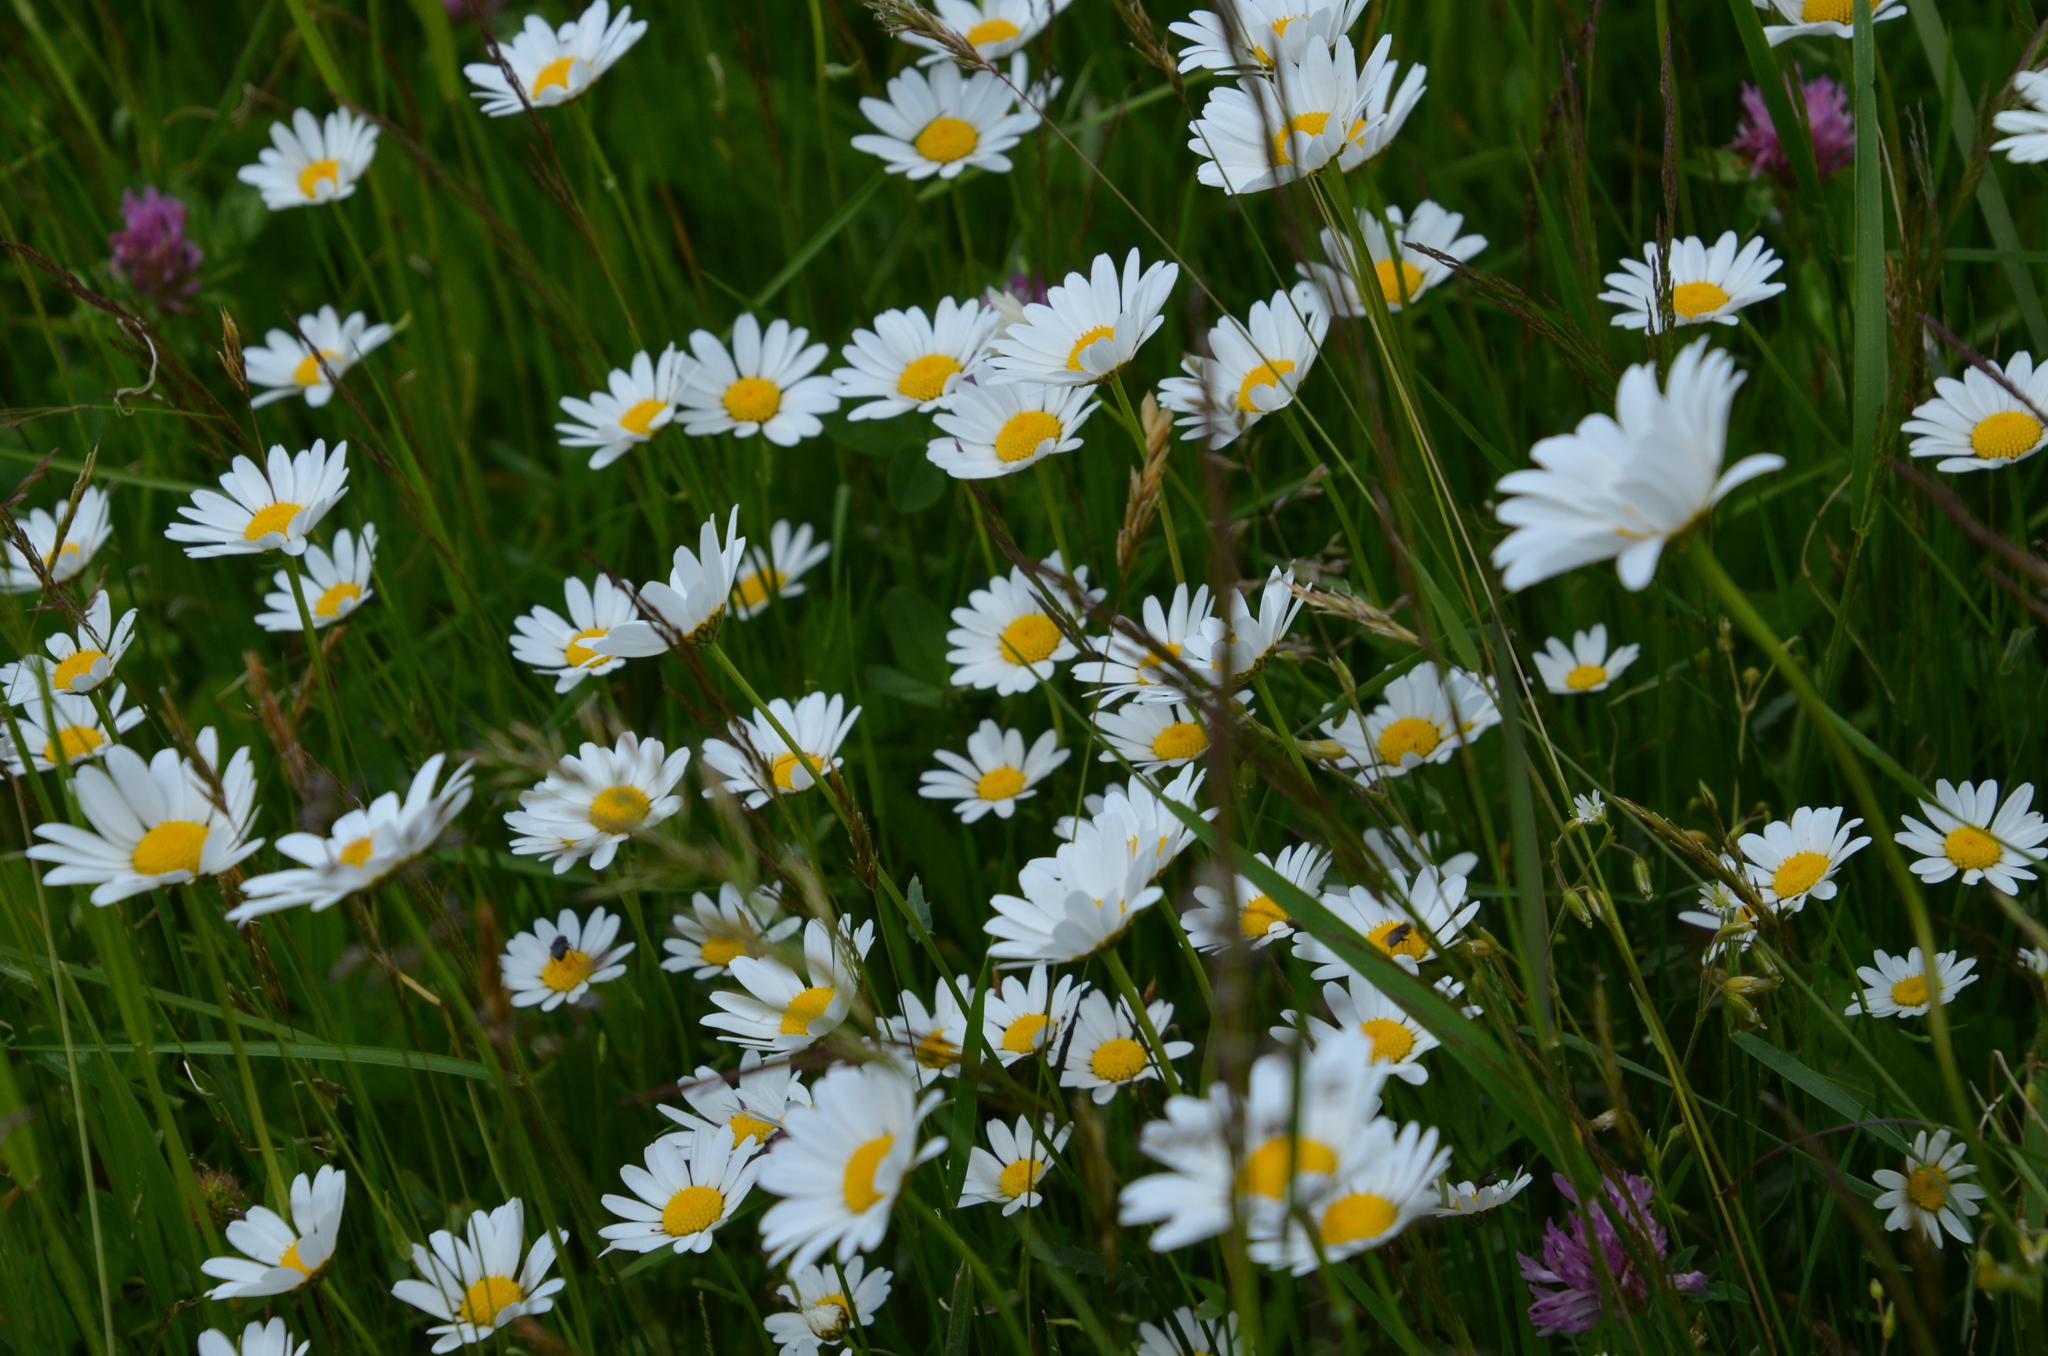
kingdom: Plantae
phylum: Tracheophyta
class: Magnoliopsida
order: Asterales
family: Asteraceae
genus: Leucanthemum
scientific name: Leucanthemum vulgare
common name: Oxeye daisy
